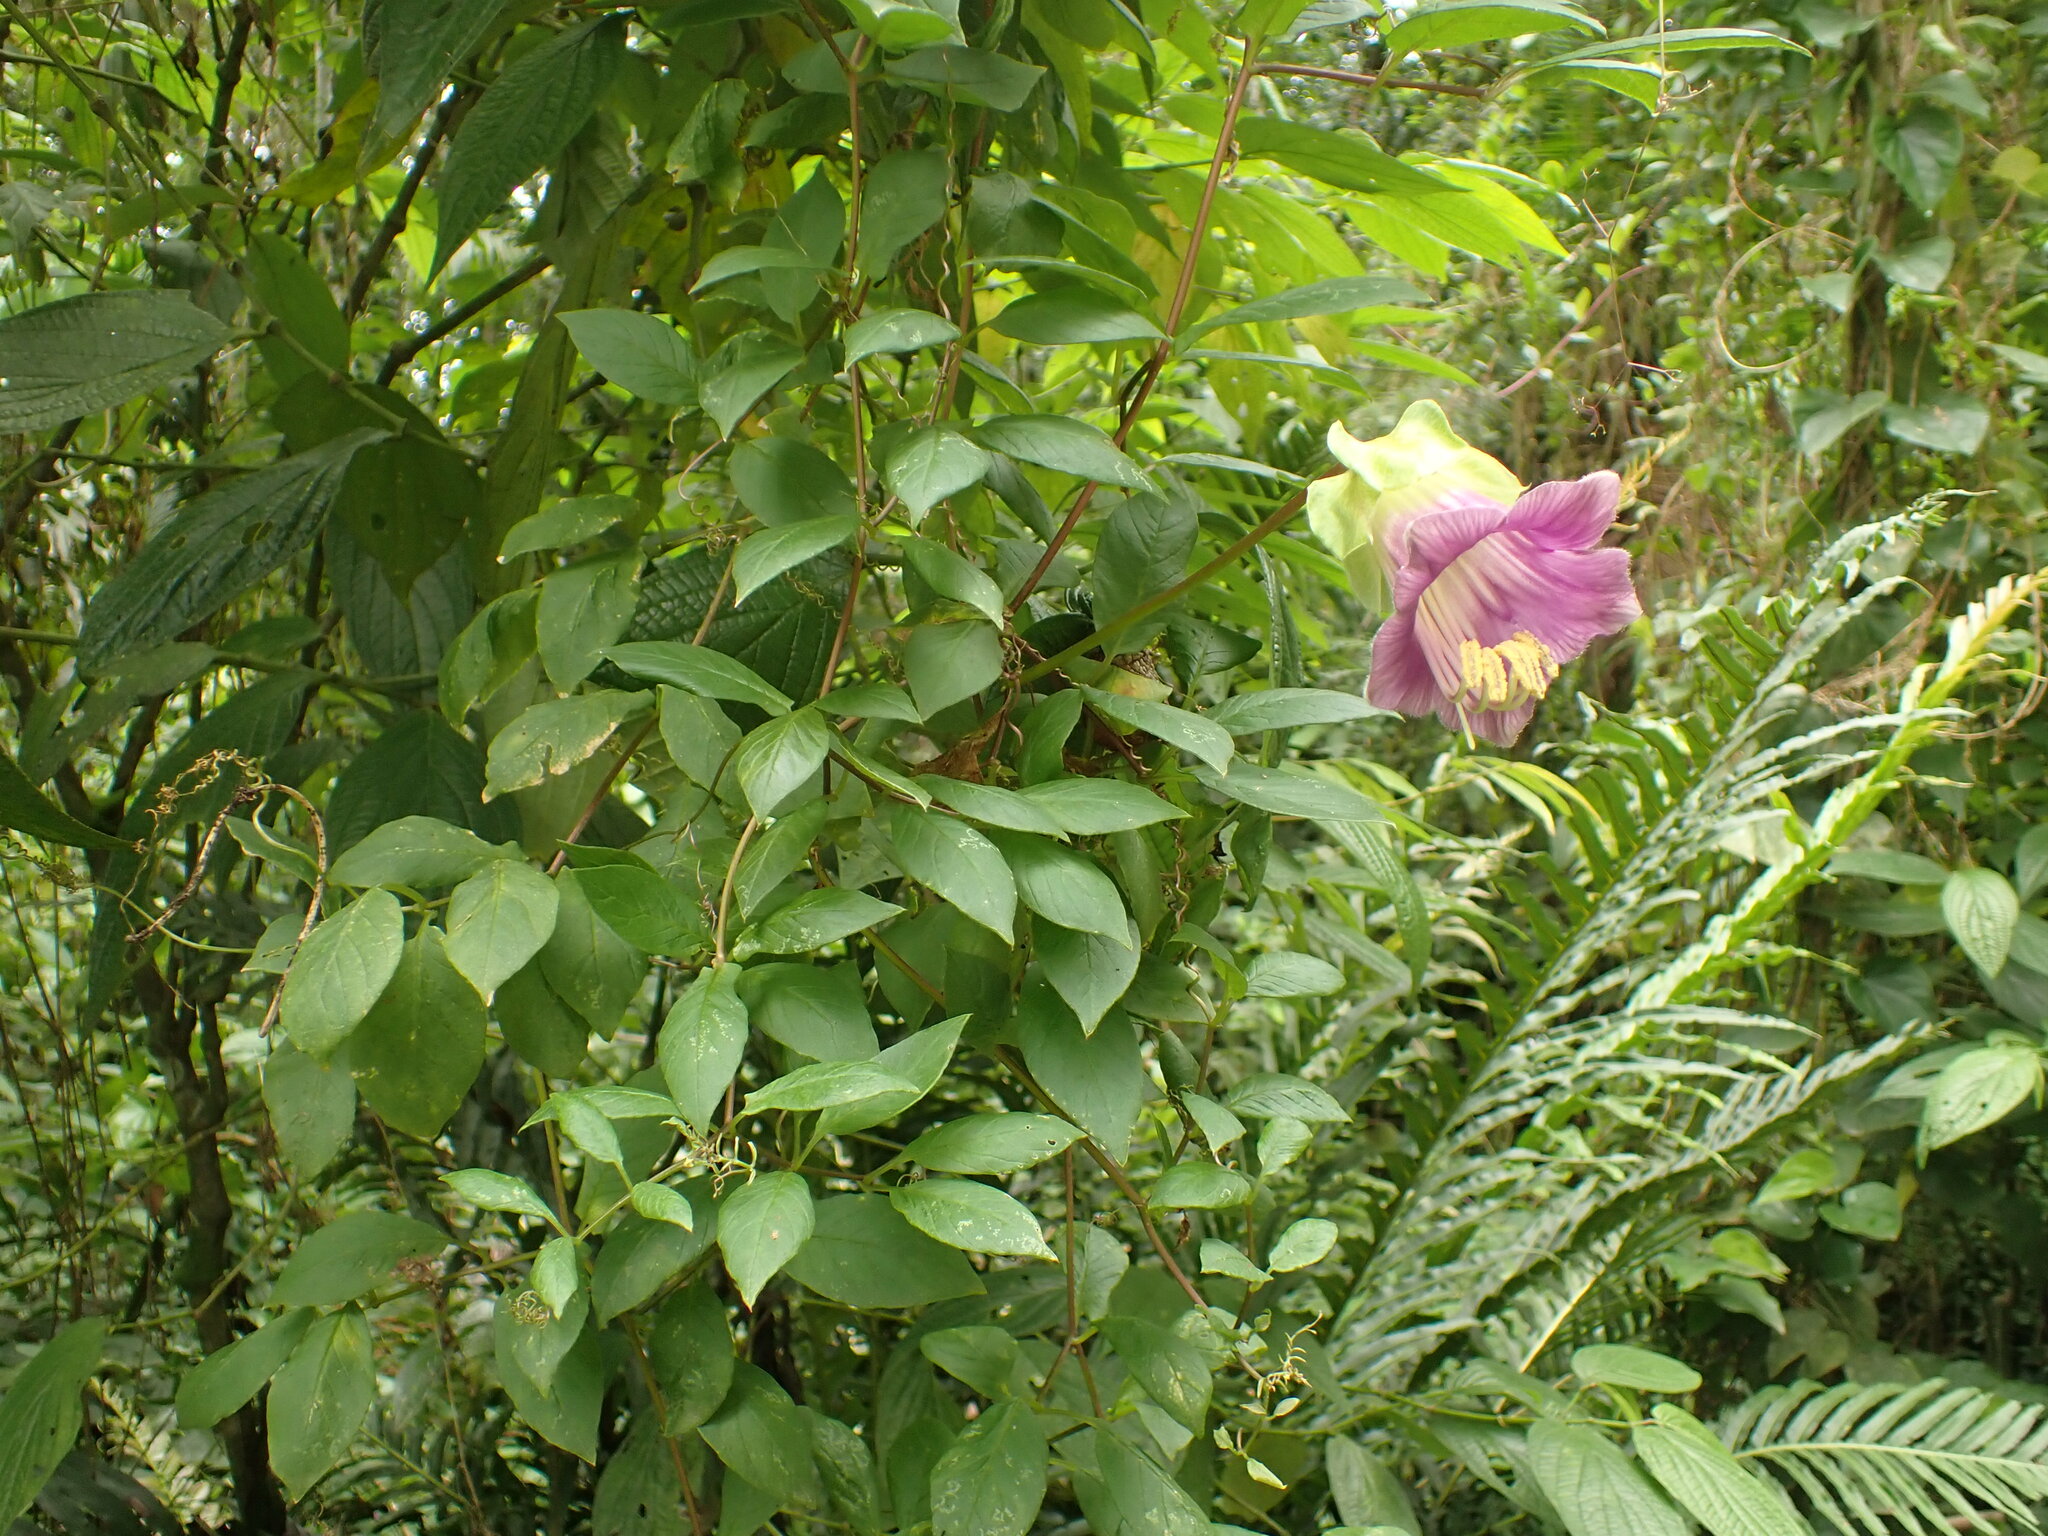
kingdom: Plantae
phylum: Tracheophyta
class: Magnoliopsida
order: Ericales
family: Polemoniaceae
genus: Cobaea
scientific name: Cobaea scandens
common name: Cup-and-saucer-vine
